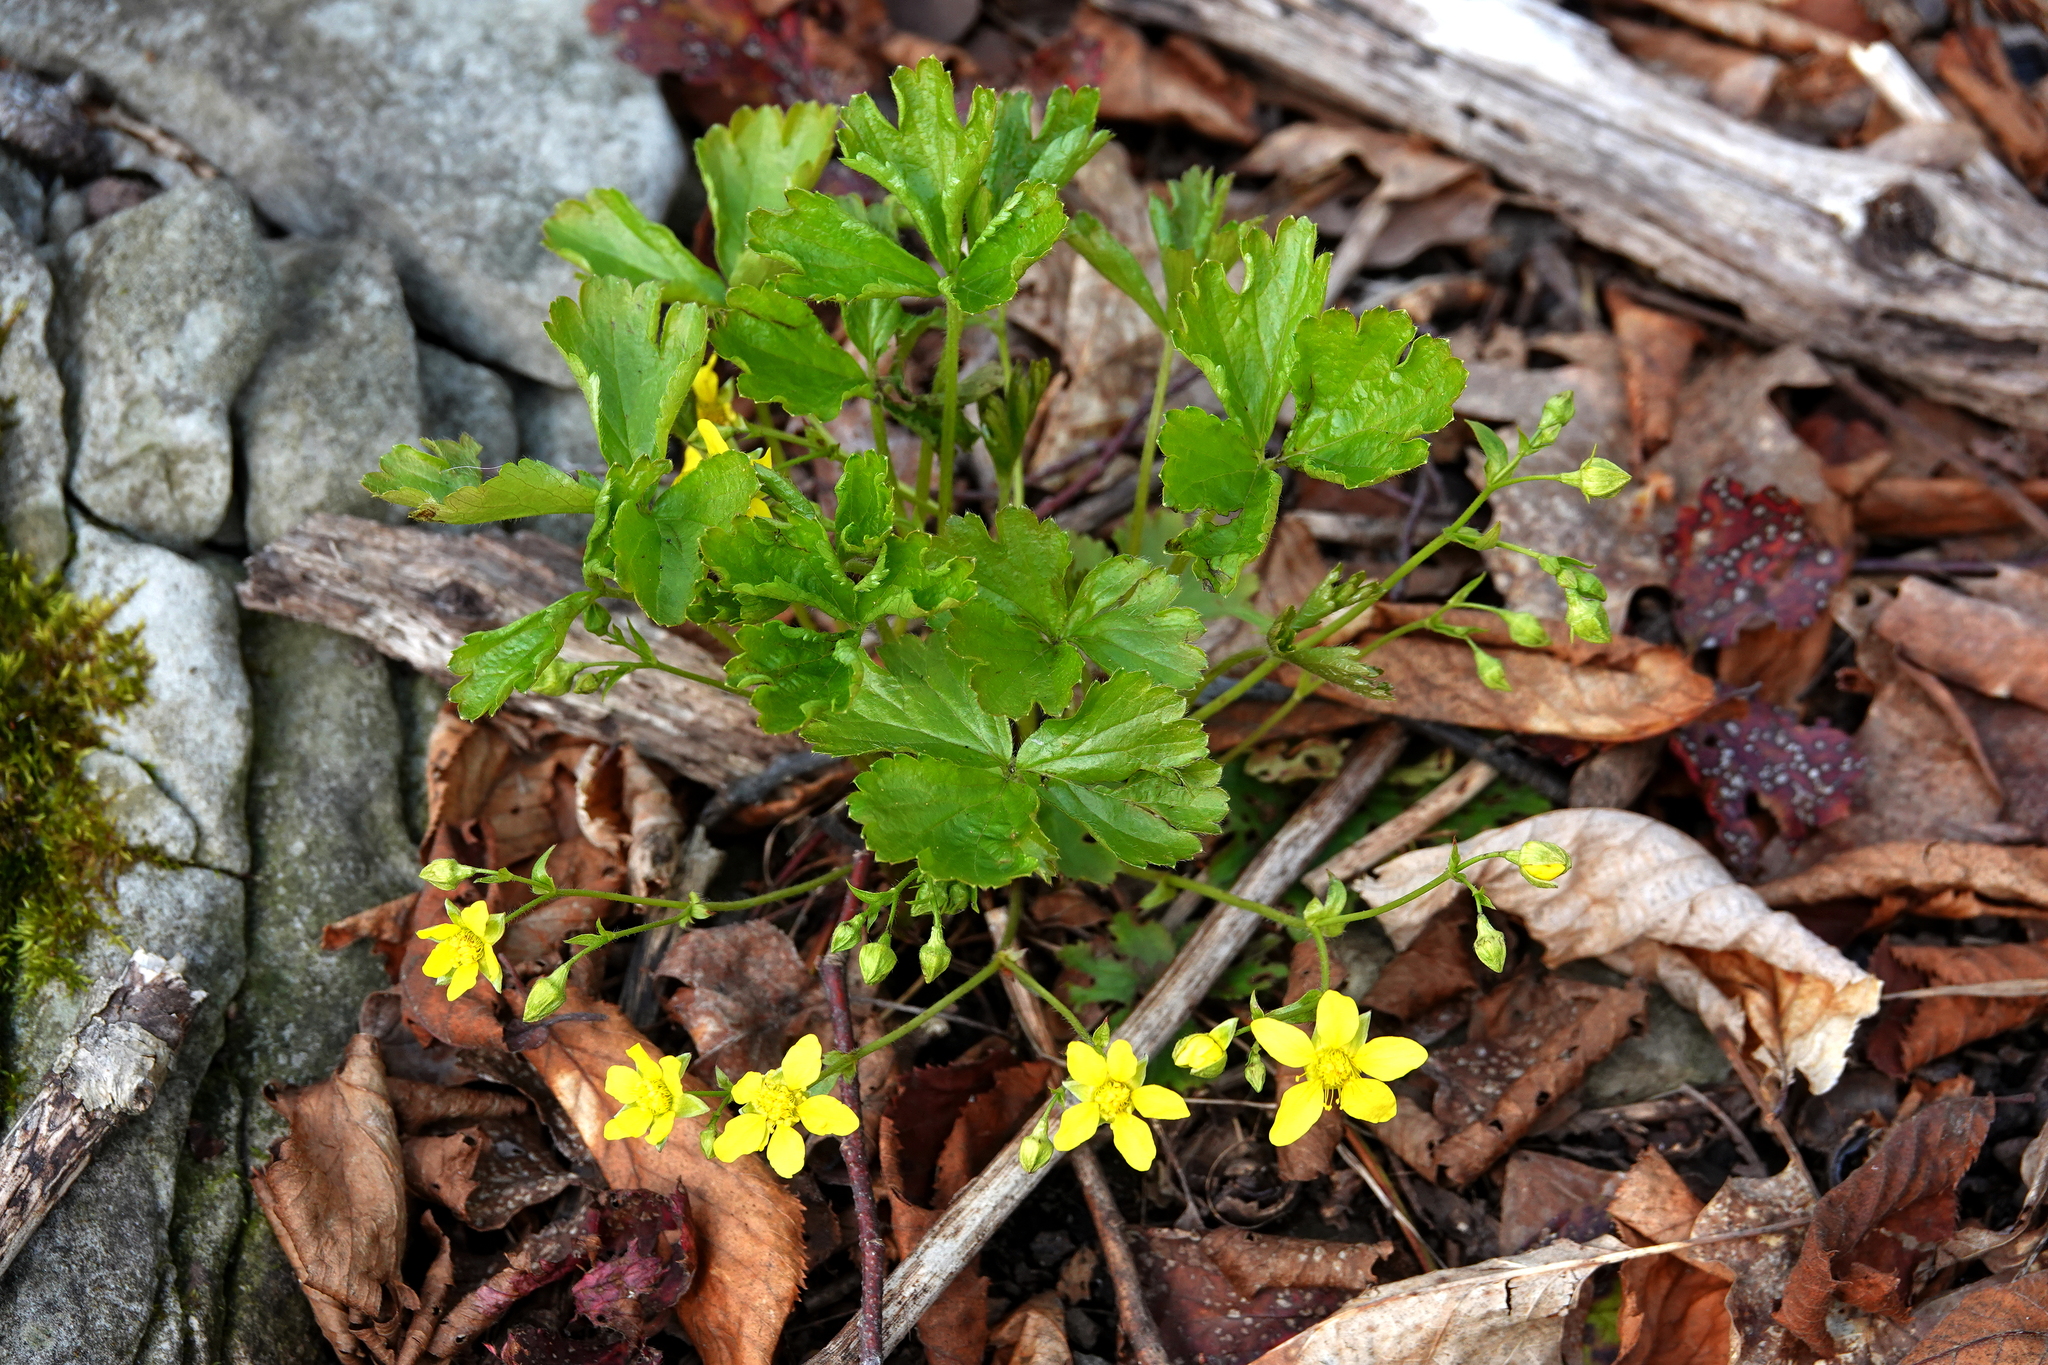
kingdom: Plantae
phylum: Tracheophyta
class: Magnoliopsida
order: Rosales
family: Rosaceae
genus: Geum
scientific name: Geum fragarioides
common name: Appalachian barren strawberry
